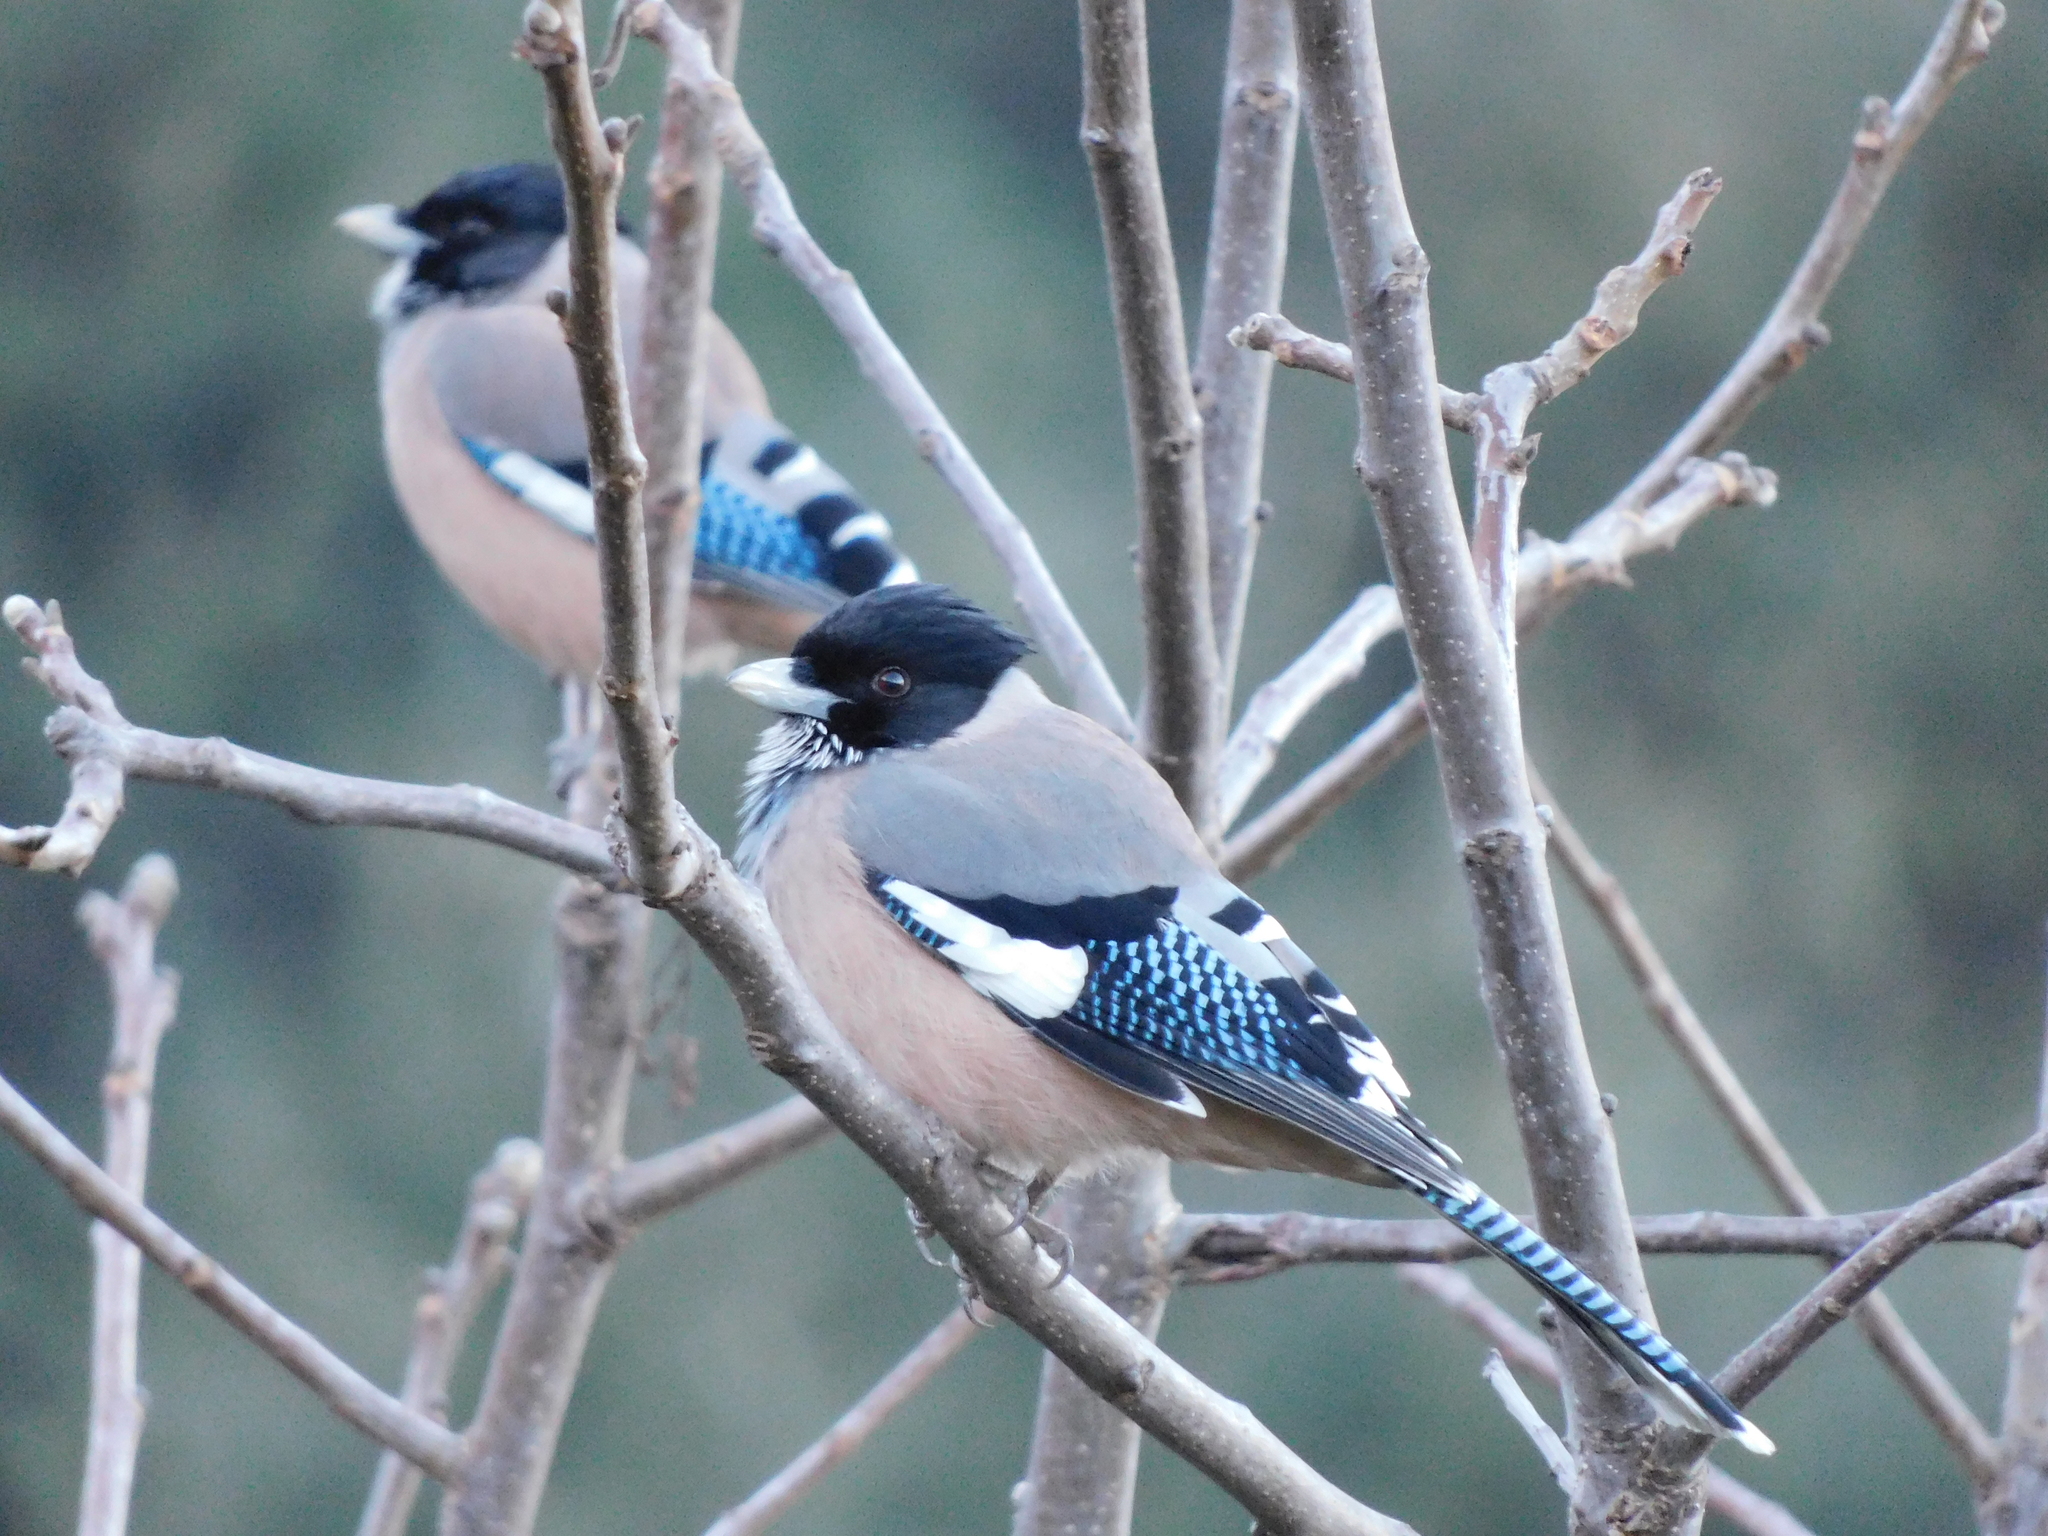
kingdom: Animalia
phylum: Chordata
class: Aves
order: Passeriformes
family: Corvidae
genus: Garrulus
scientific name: Garrulus lanceolatus
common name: Black-headed jay
